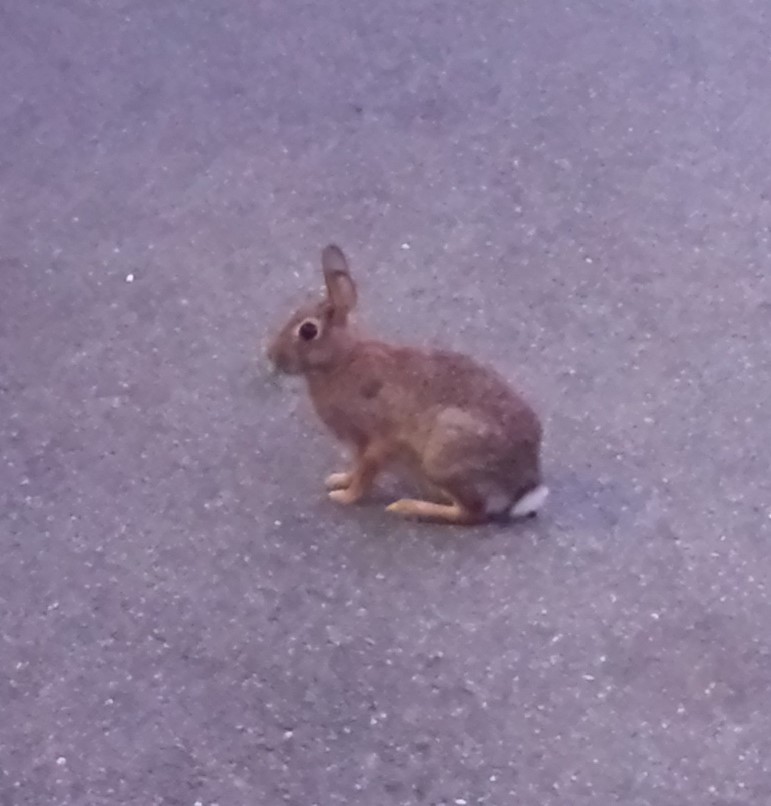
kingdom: Animalia
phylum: Chordata
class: Mammalia
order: Lagomorpha
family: Leporidae
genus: Sylvilagus
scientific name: Sylvilagus floridanus
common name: Eastern cottontail
